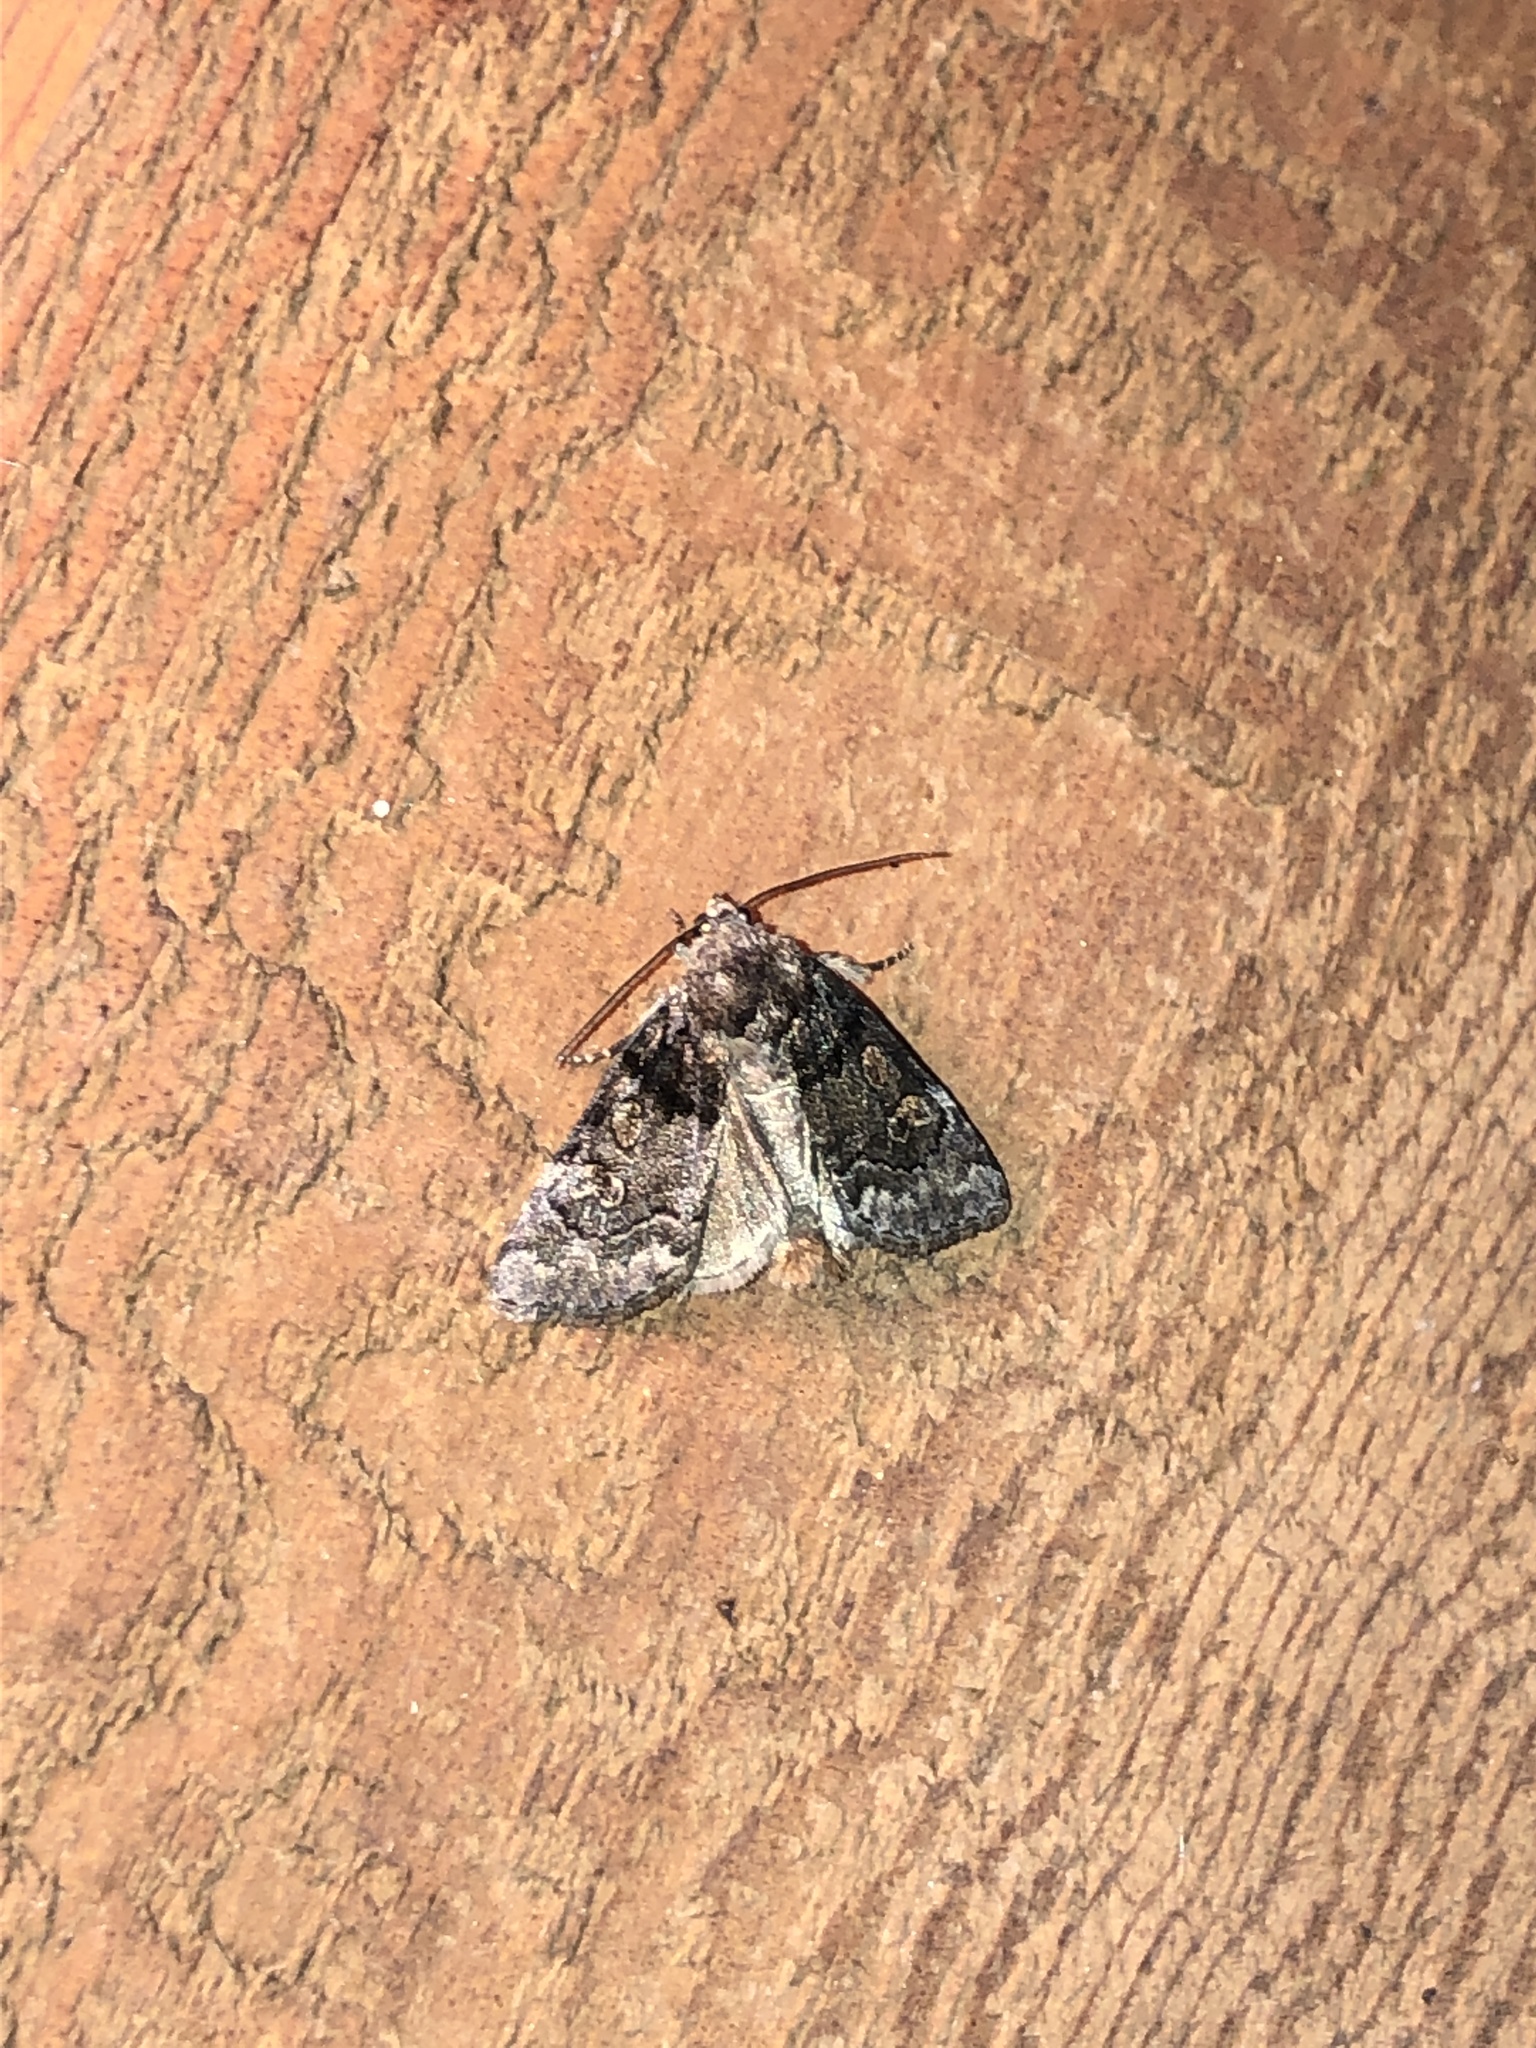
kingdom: Animalia
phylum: Arthropoda
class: Insecta
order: Lepidoptera
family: Noctuidae
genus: Cosmia
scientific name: Cosmia praeacuta
